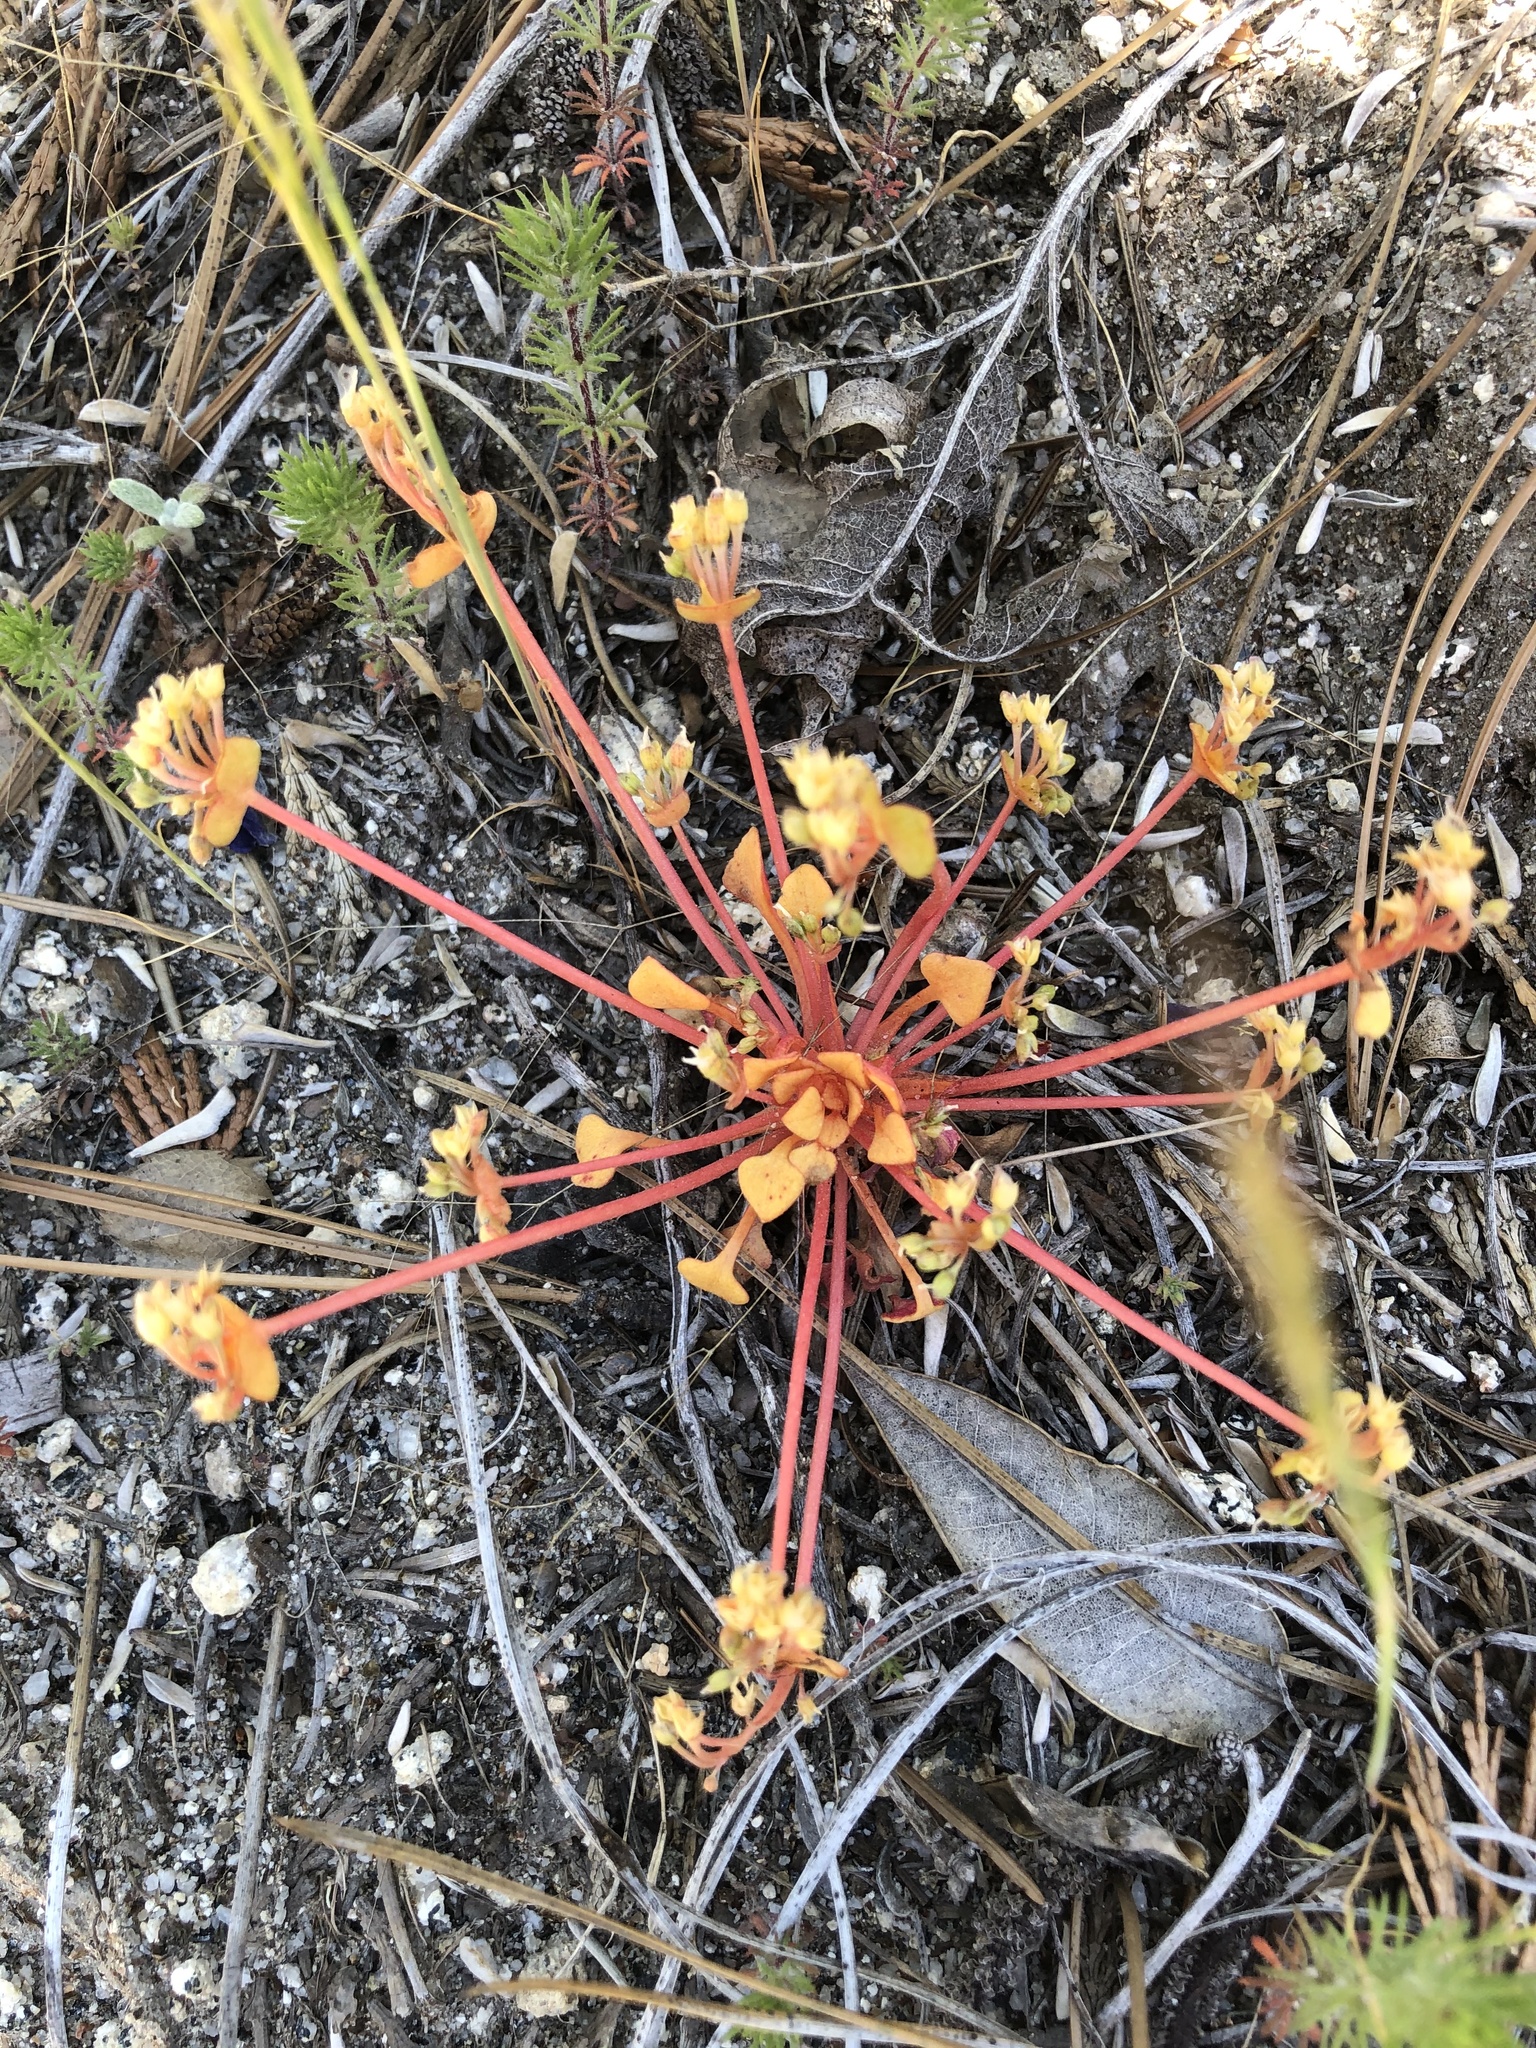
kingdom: Plantae
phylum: Tracheophyta
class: Magnoliopsida
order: Caryophyllales
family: Montiaceae
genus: Claytonia
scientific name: Claytonia rubra
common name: Erubescent miner's-lettuce
